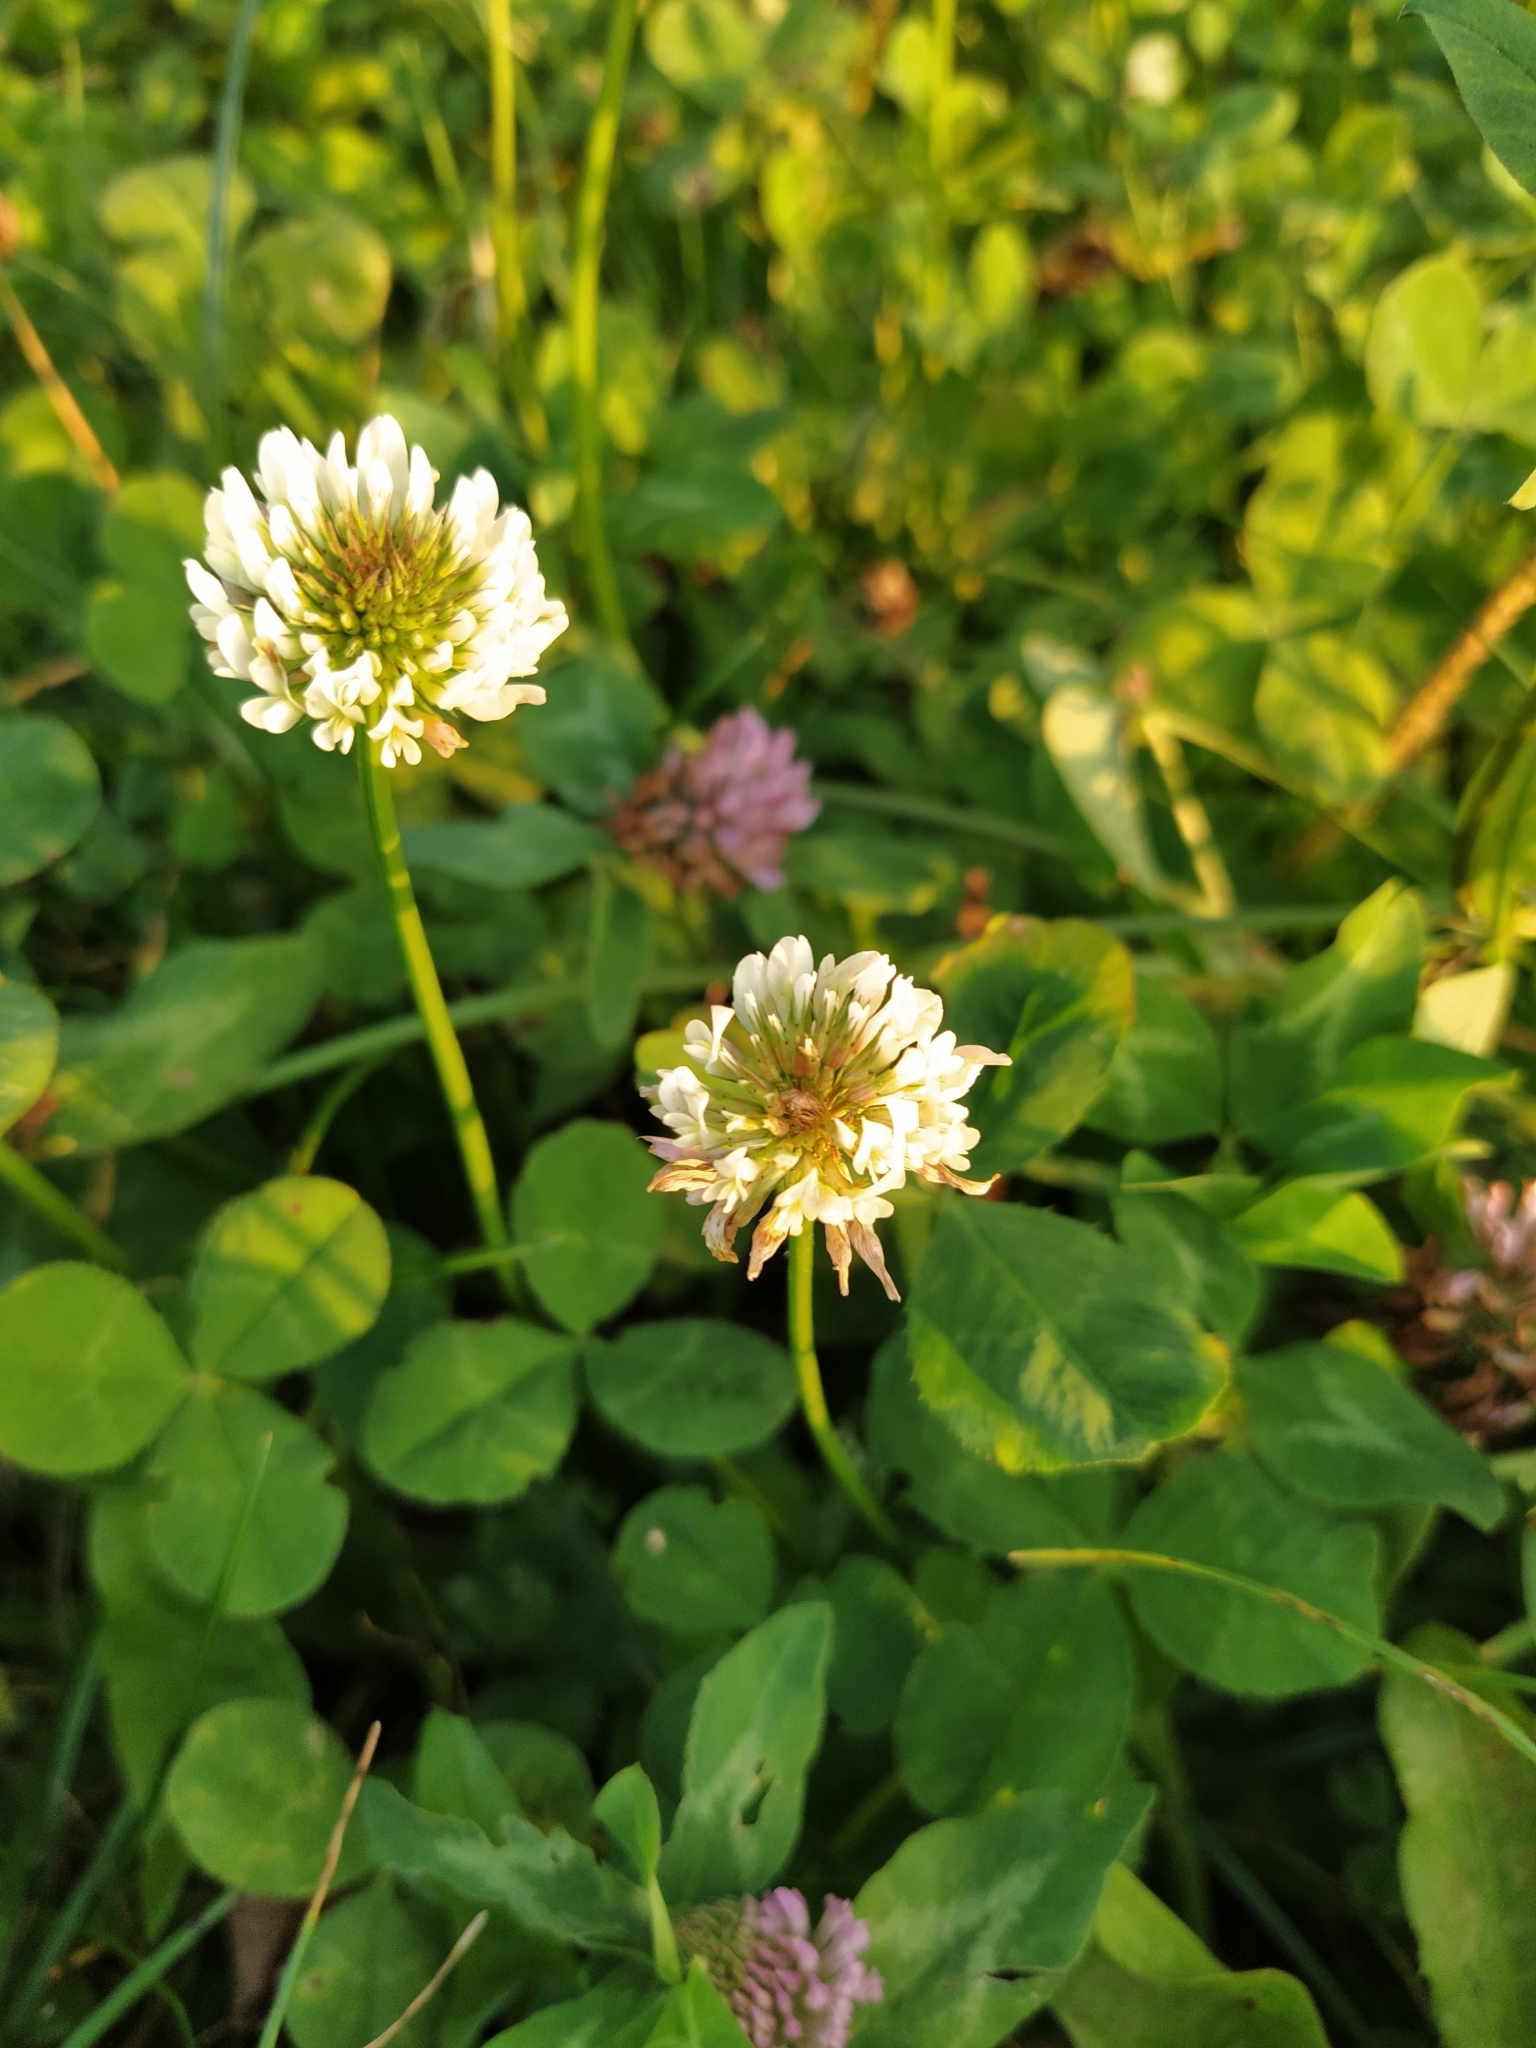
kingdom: Plantae
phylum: Tracheophyta
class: Magnoliopsida
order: Fabales
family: Fabaceae
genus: Trifolium
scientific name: Trifolium repens
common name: White clover
